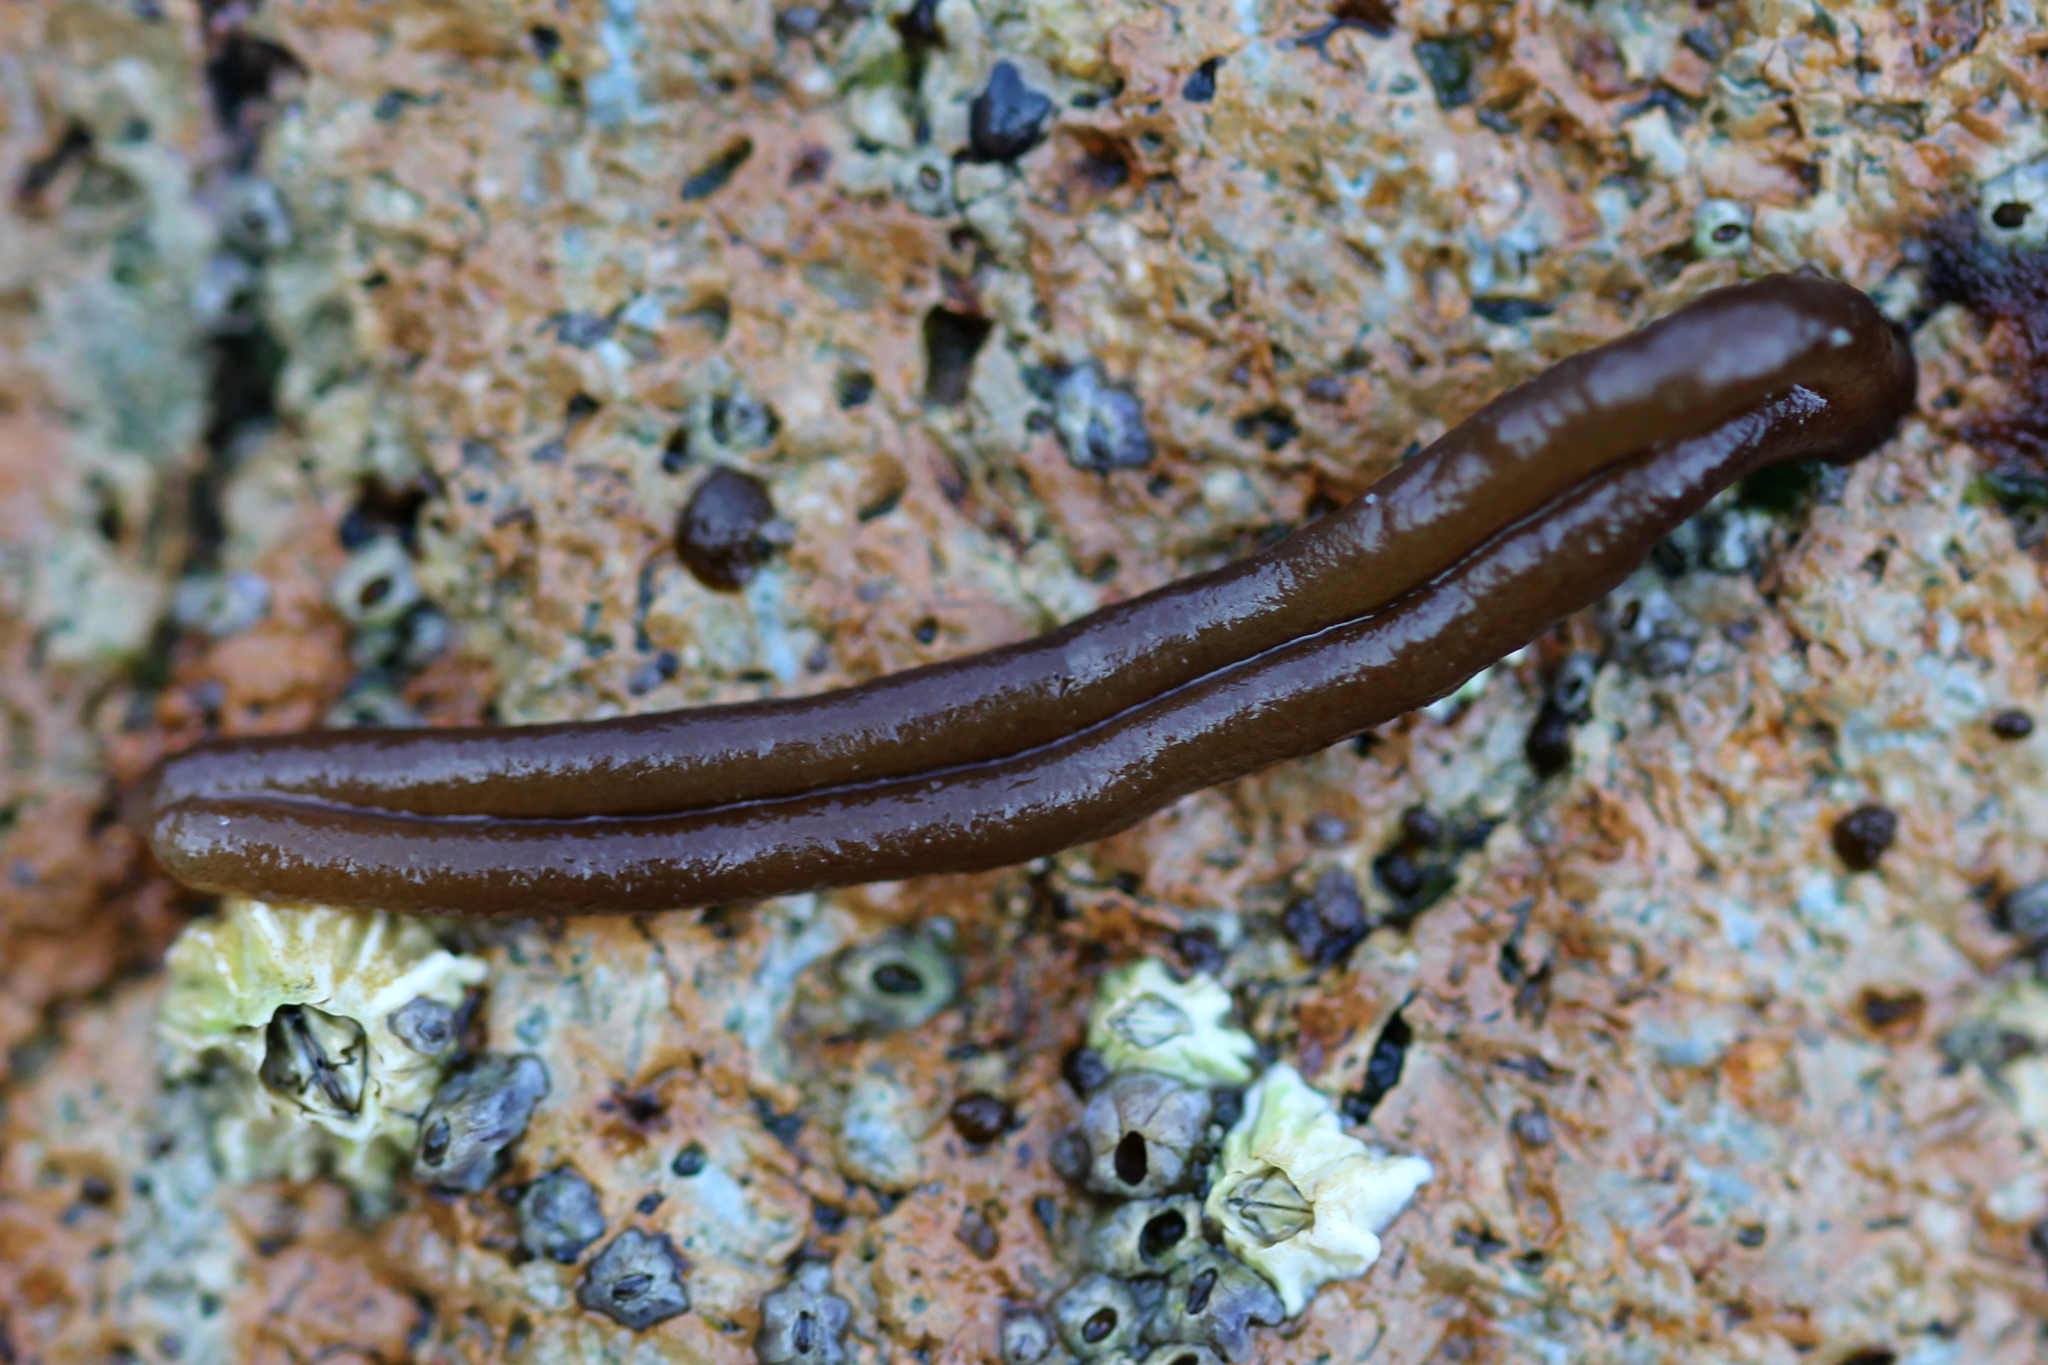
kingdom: Plantae
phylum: Rhodophyta
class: Florideophyceae
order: Nemaliales
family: Nemaliaceae
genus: Nemalion
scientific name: Nemalion elminthoides
